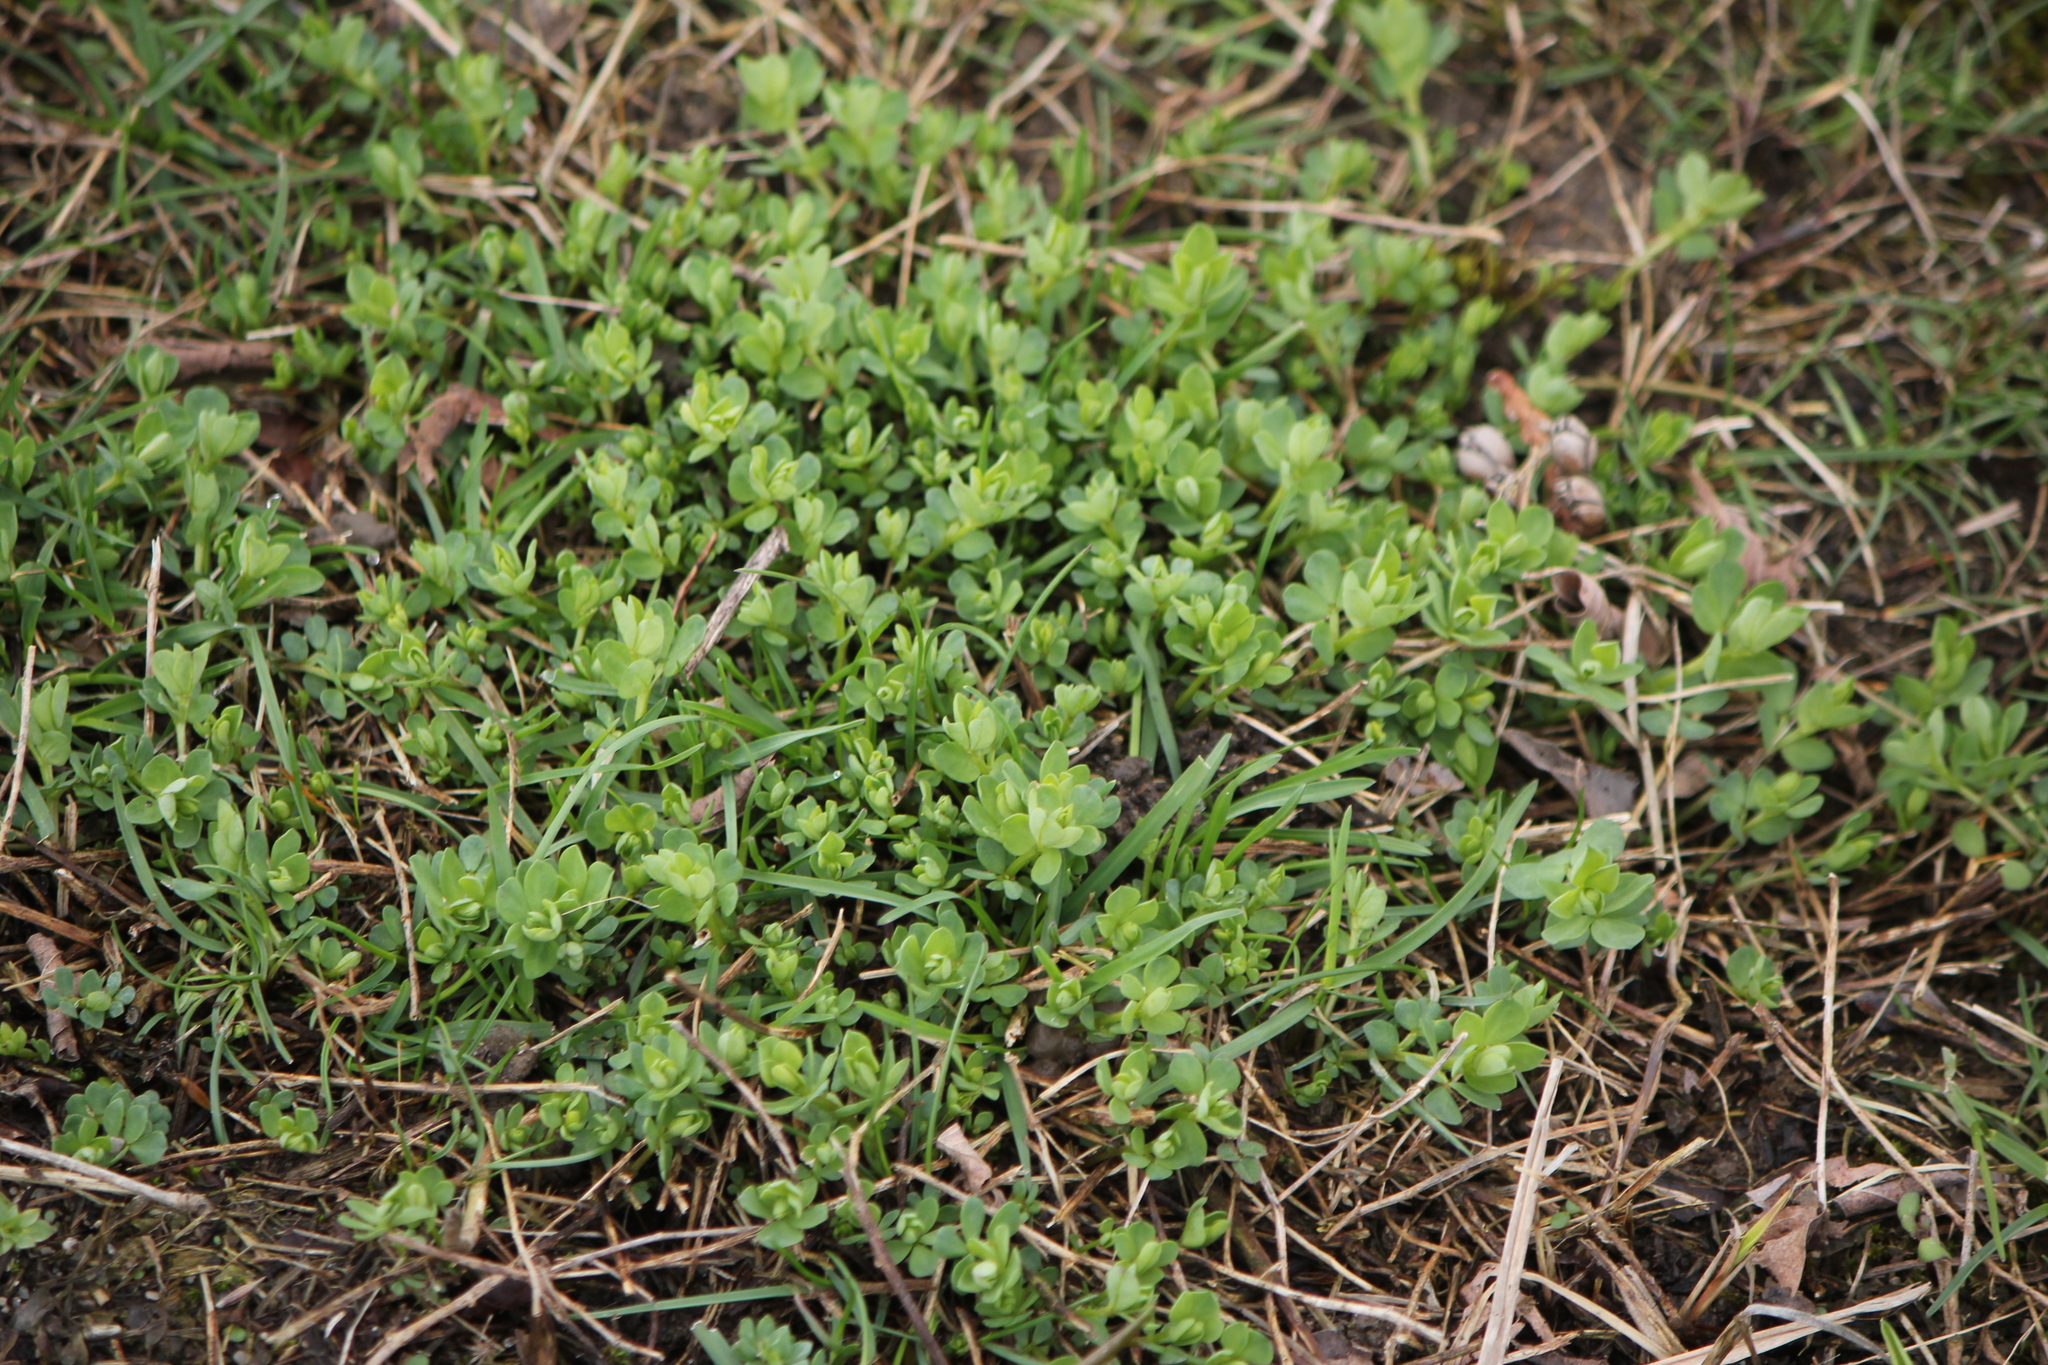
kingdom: Plantae
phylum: Tracheophyta
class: Magnoliopsida
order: Fabales
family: Fabaceae
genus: Lotus
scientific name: Lotus corniculatus
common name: Common bird's-foot-trefoil
